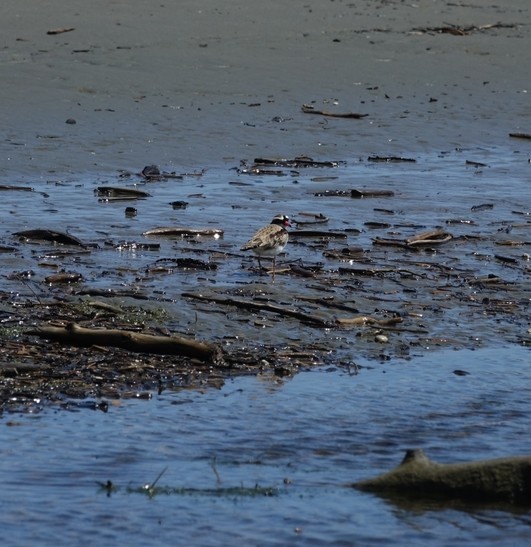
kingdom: Animalia
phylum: Chordata
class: Aves
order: Charadriiformes
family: Charadriidae
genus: Elseyornis
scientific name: Elseyornis melanops
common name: Black-fronted dotterel
